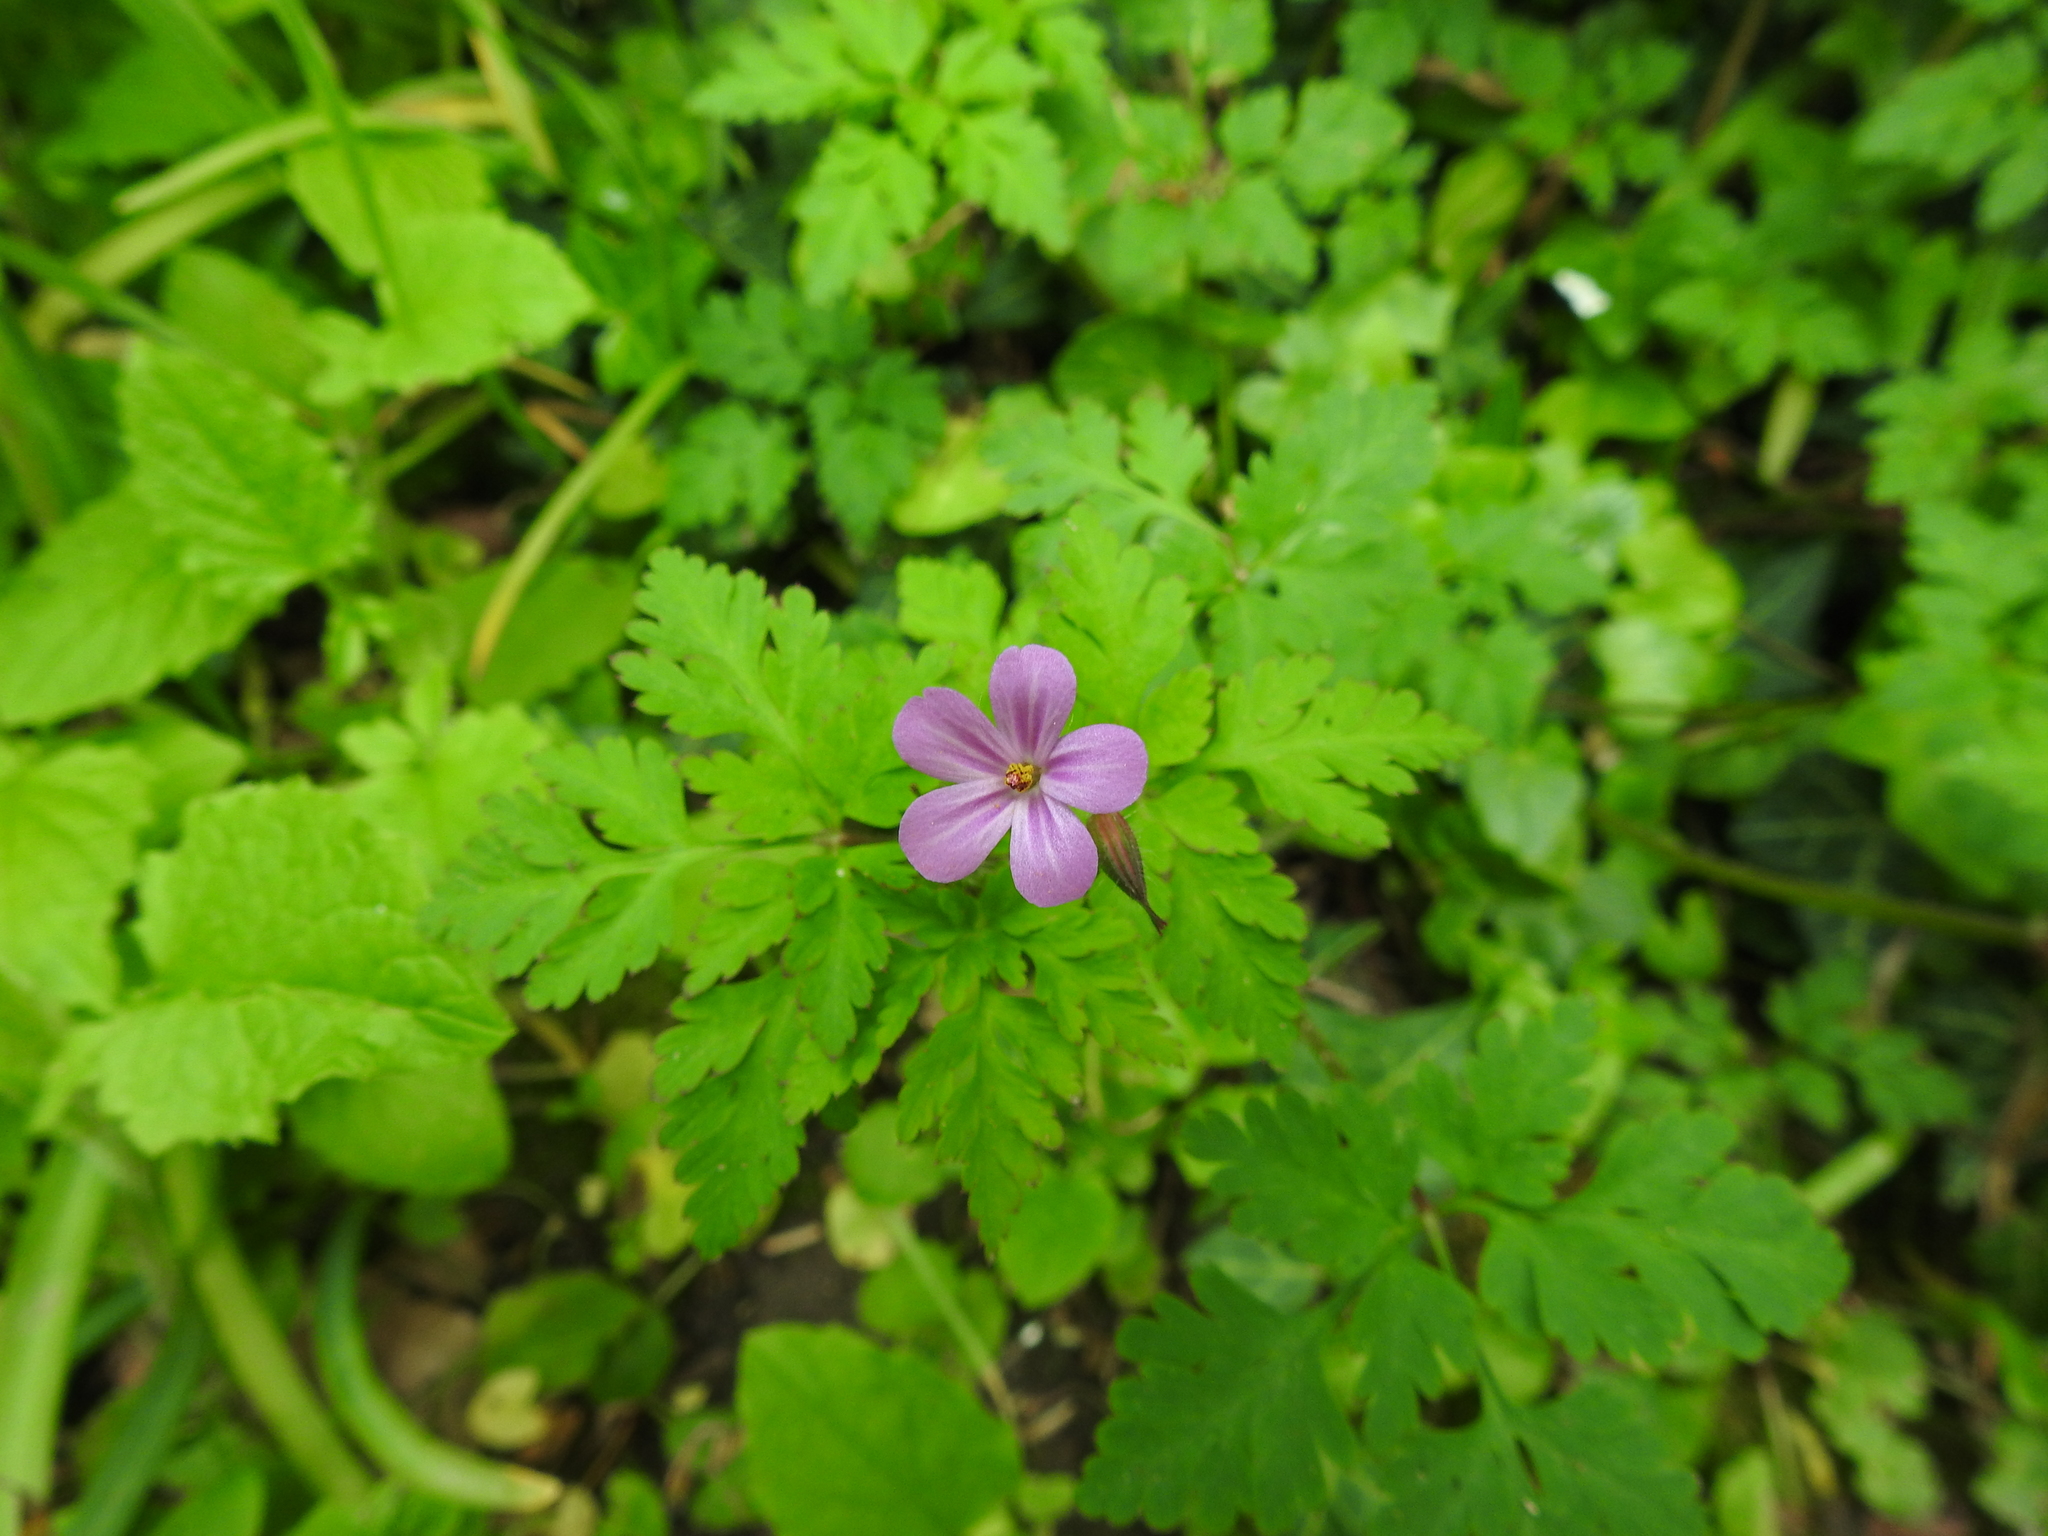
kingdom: Plantae
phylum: Tracheophyta
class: Magnoliopsida
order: Geraniales
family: Geraniaceae
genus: Geranium
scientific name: Geranium robertianum
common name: Herb-robert
